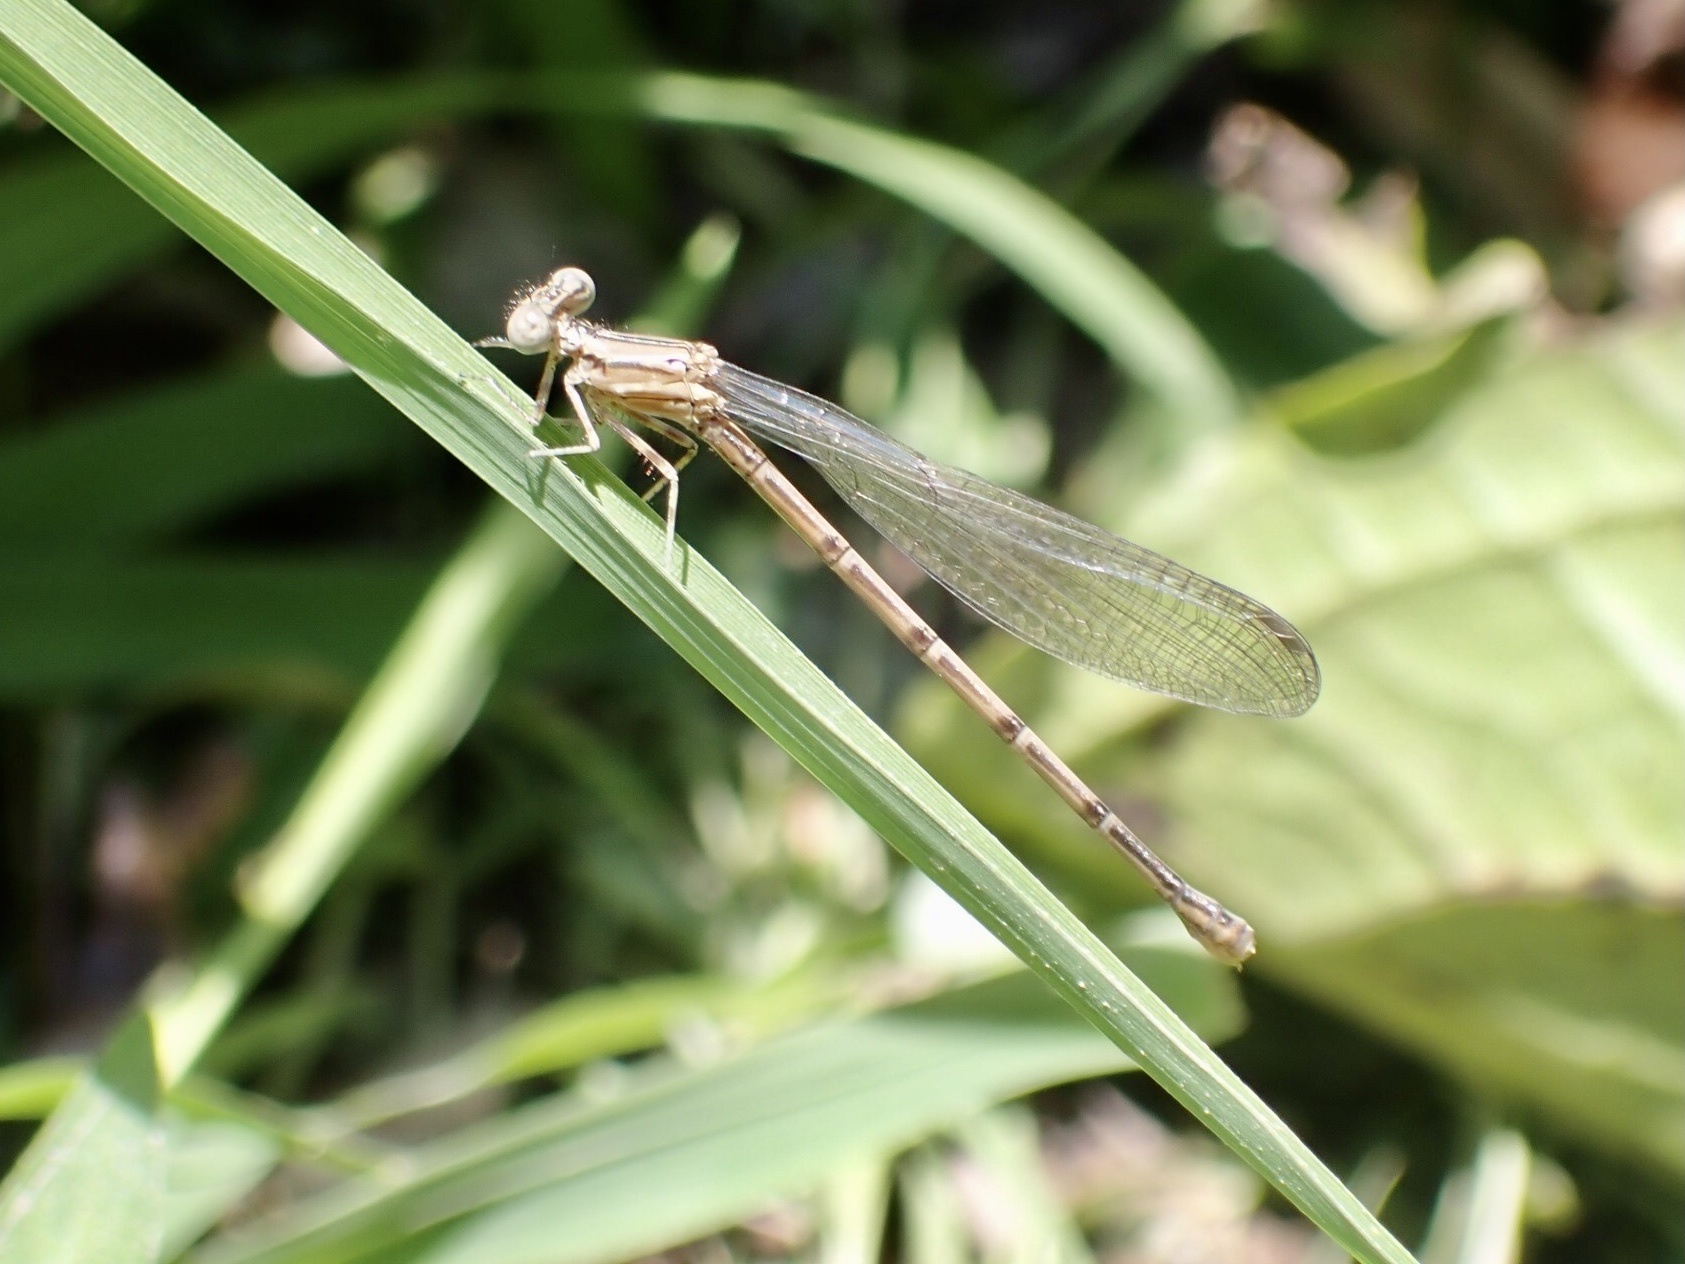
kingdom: Animalia
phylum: Arthropoda
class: Insecta
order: Odonata
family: Coenagrionidae
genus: Argia
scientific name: Argia fumipennis
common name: Variable dancer
